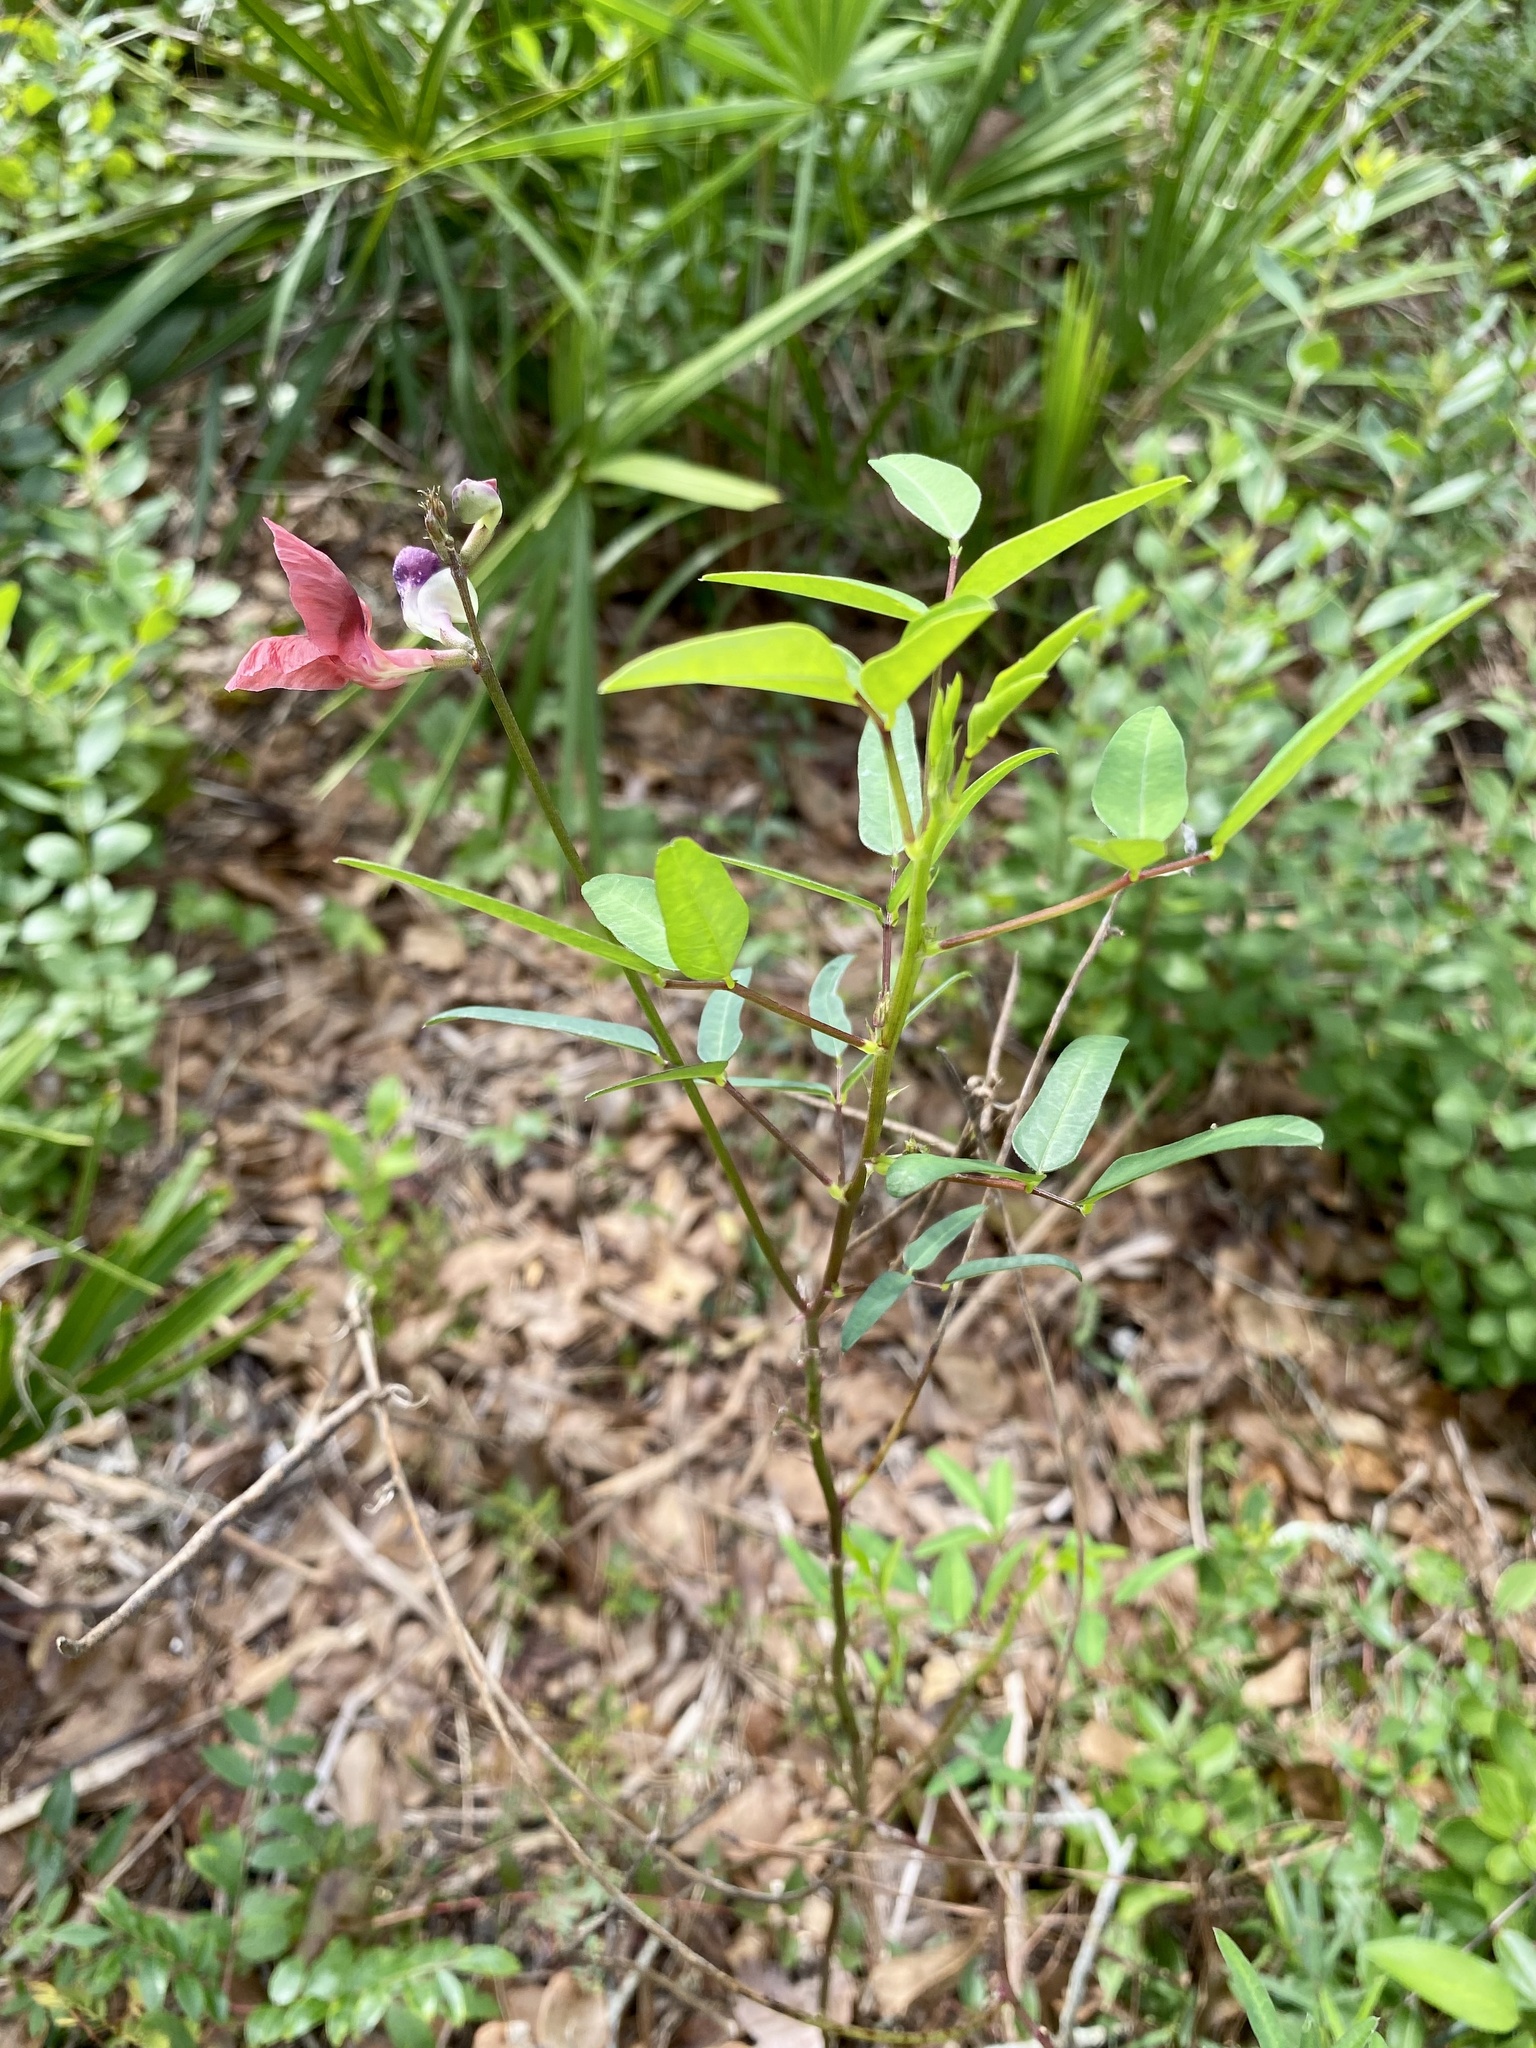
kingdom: Plantae
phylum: Tracheophyta
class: Magnoliopsida
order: Fabales
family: Fabaceae
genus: Macroptilium
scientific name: Macroptilium lathyroides
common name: Wild bushbean
